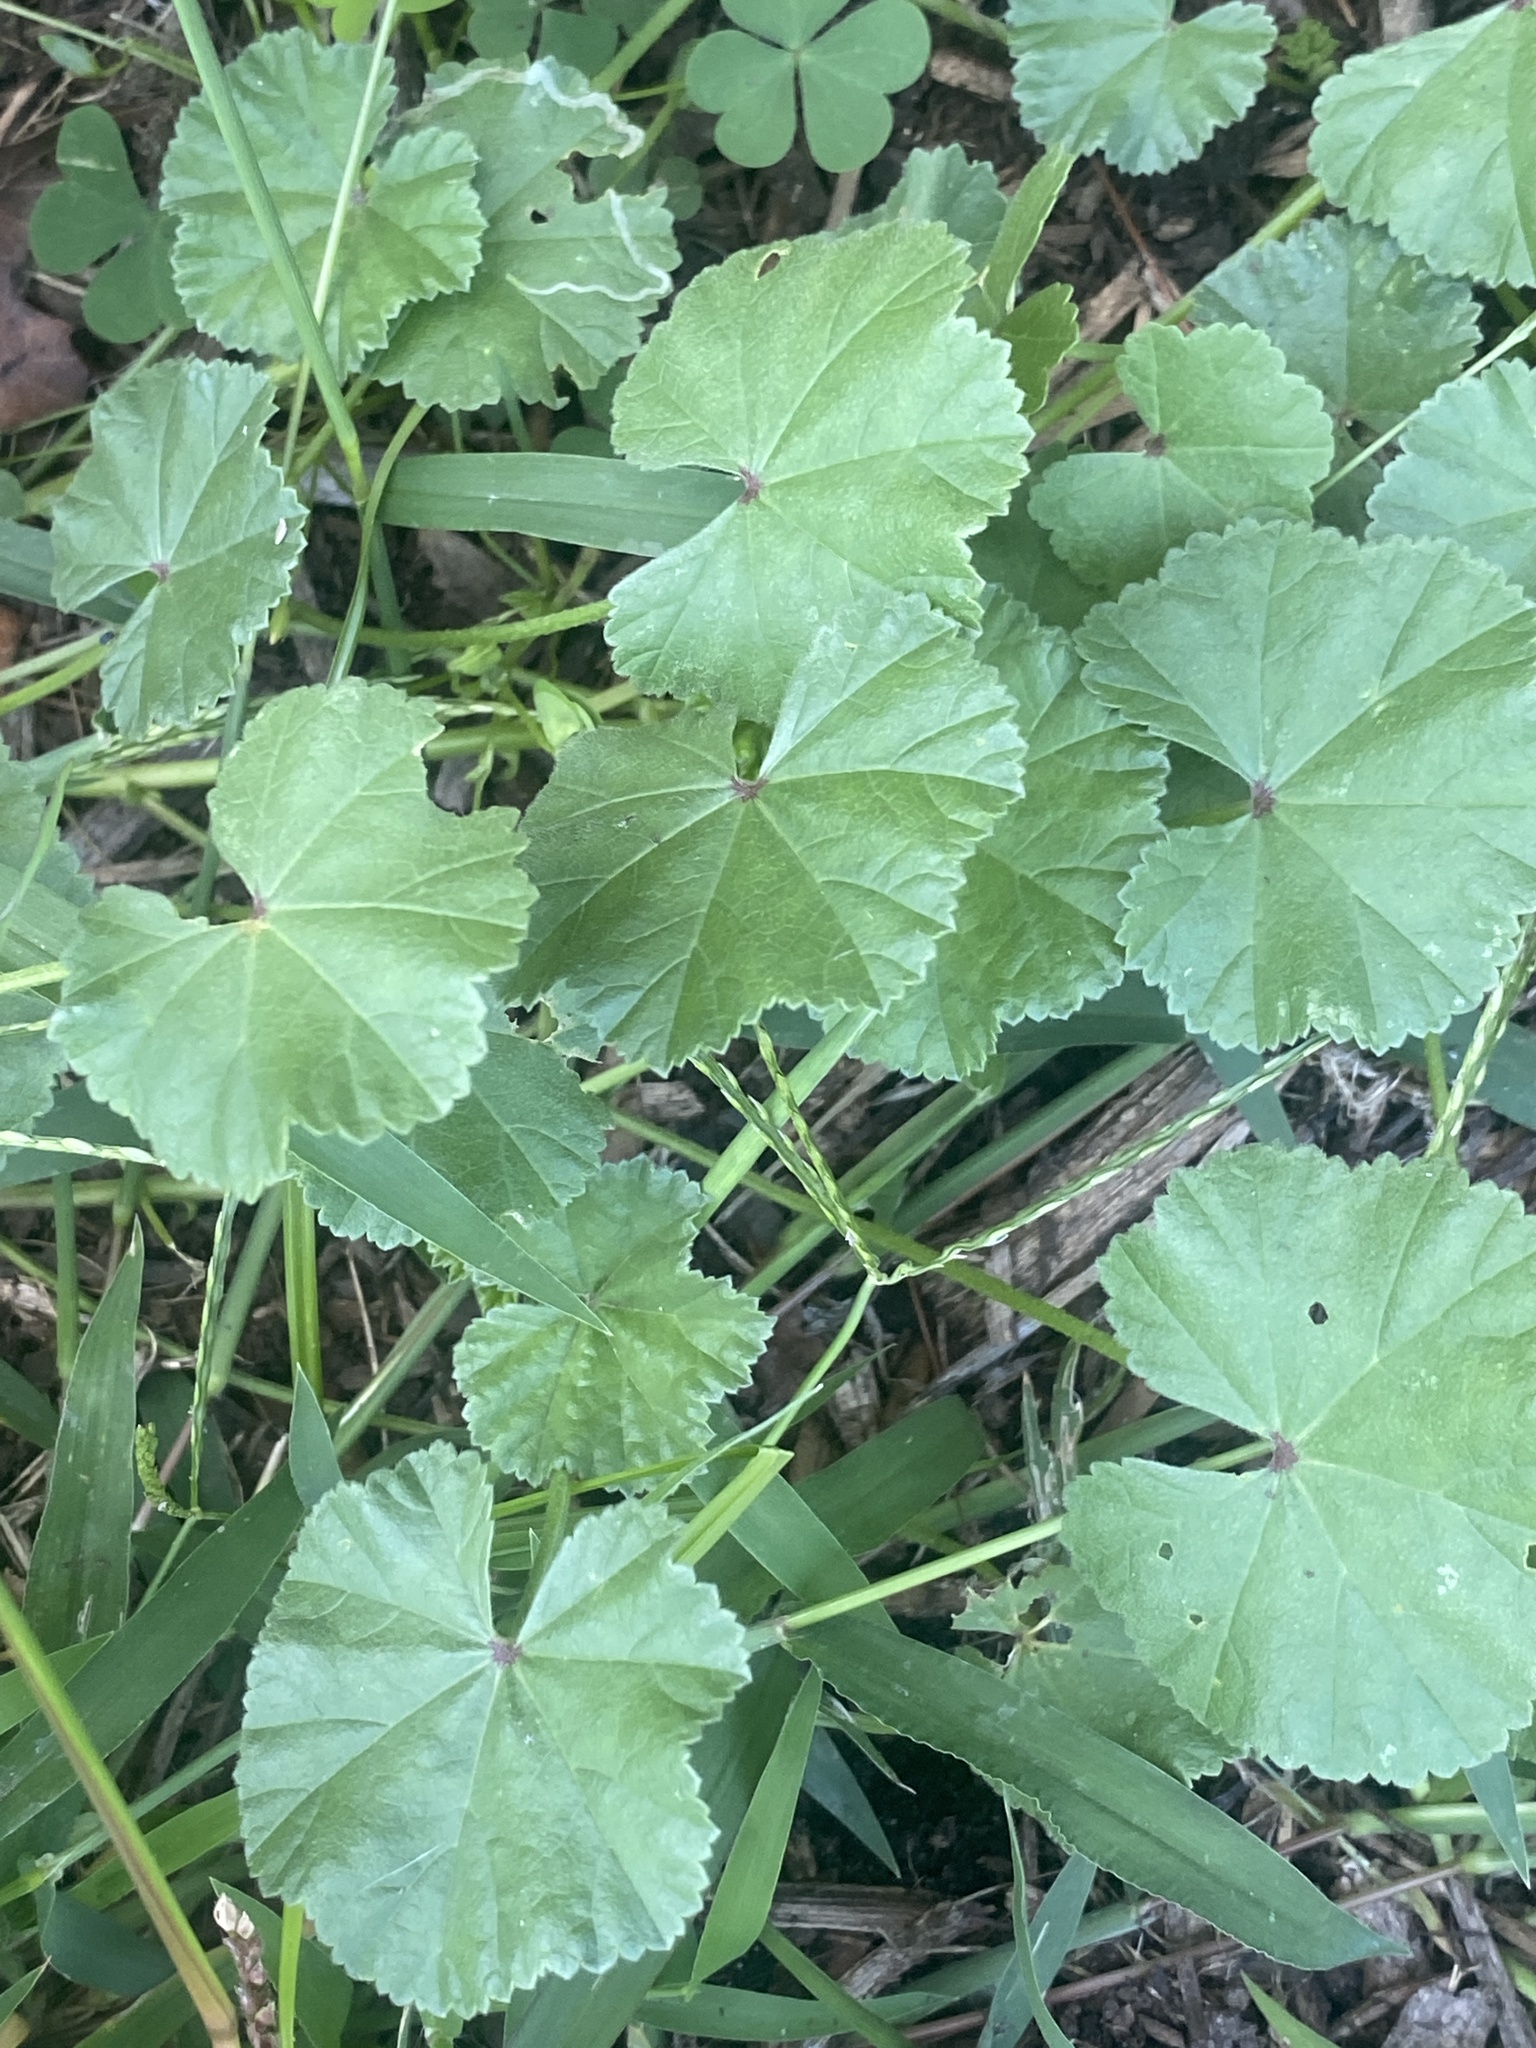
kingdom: Plantae
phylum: Tracheophyta
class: Magnoliopsida
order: Malvales
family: Malvaceae
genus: Malva
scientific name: Malva neglecta
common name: Common mallow
